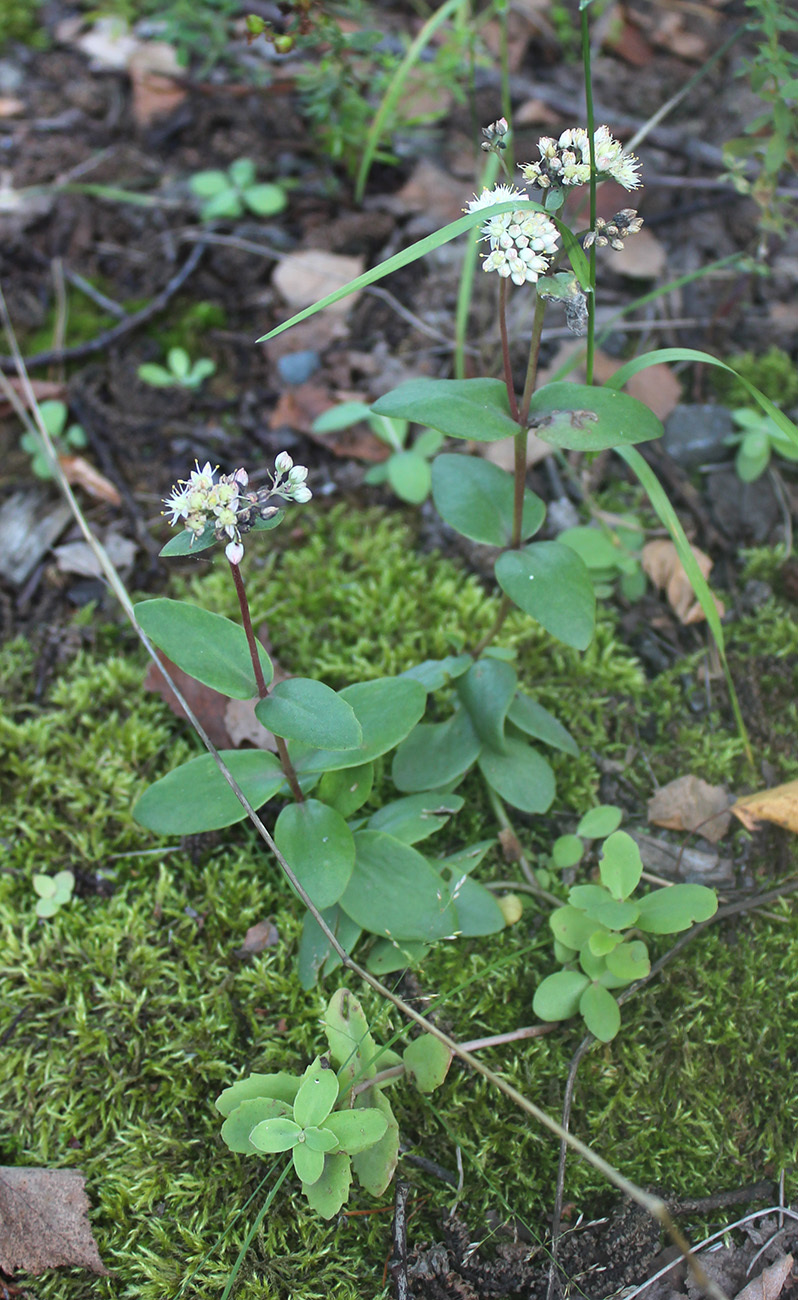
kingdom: Plantae
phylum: Tracheophyta
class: Magnoliopsida
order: Saxifragales
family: Crassulaceae
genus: Hylotelephium
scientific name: Hylotelephium maximum
